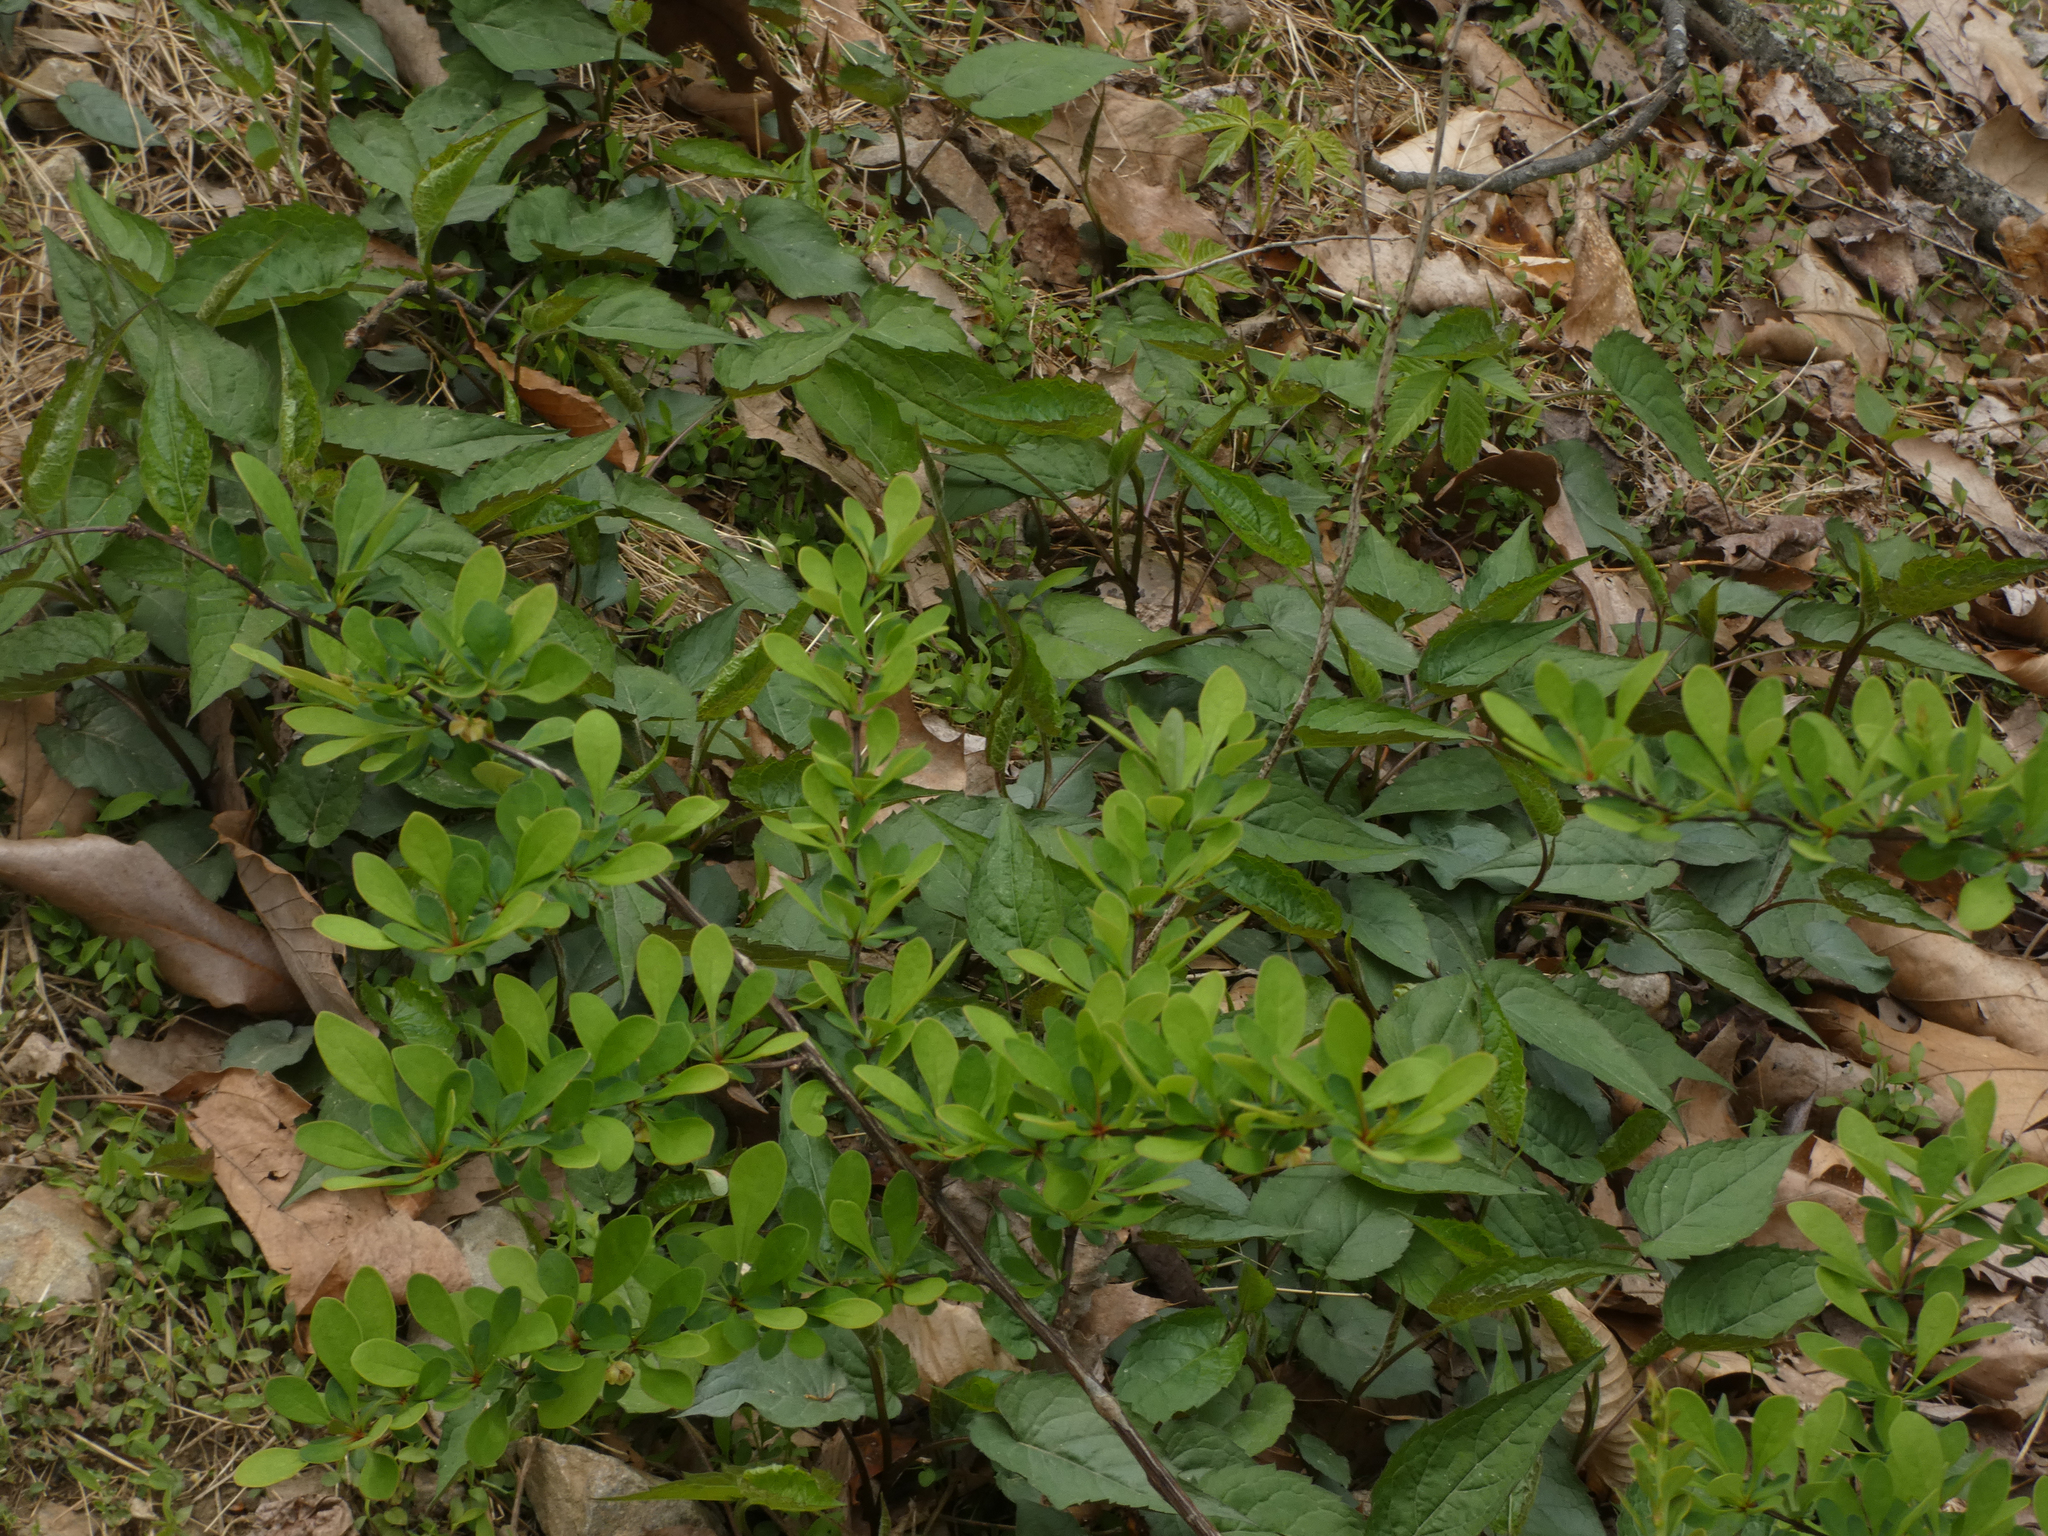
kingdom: Plantae
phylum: Tracheophyta
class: Magnoliopsida
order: Ranunculales
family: Berberidaceae
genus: Berberis
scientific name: Berberis thunbergii
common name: Japanese barberry
